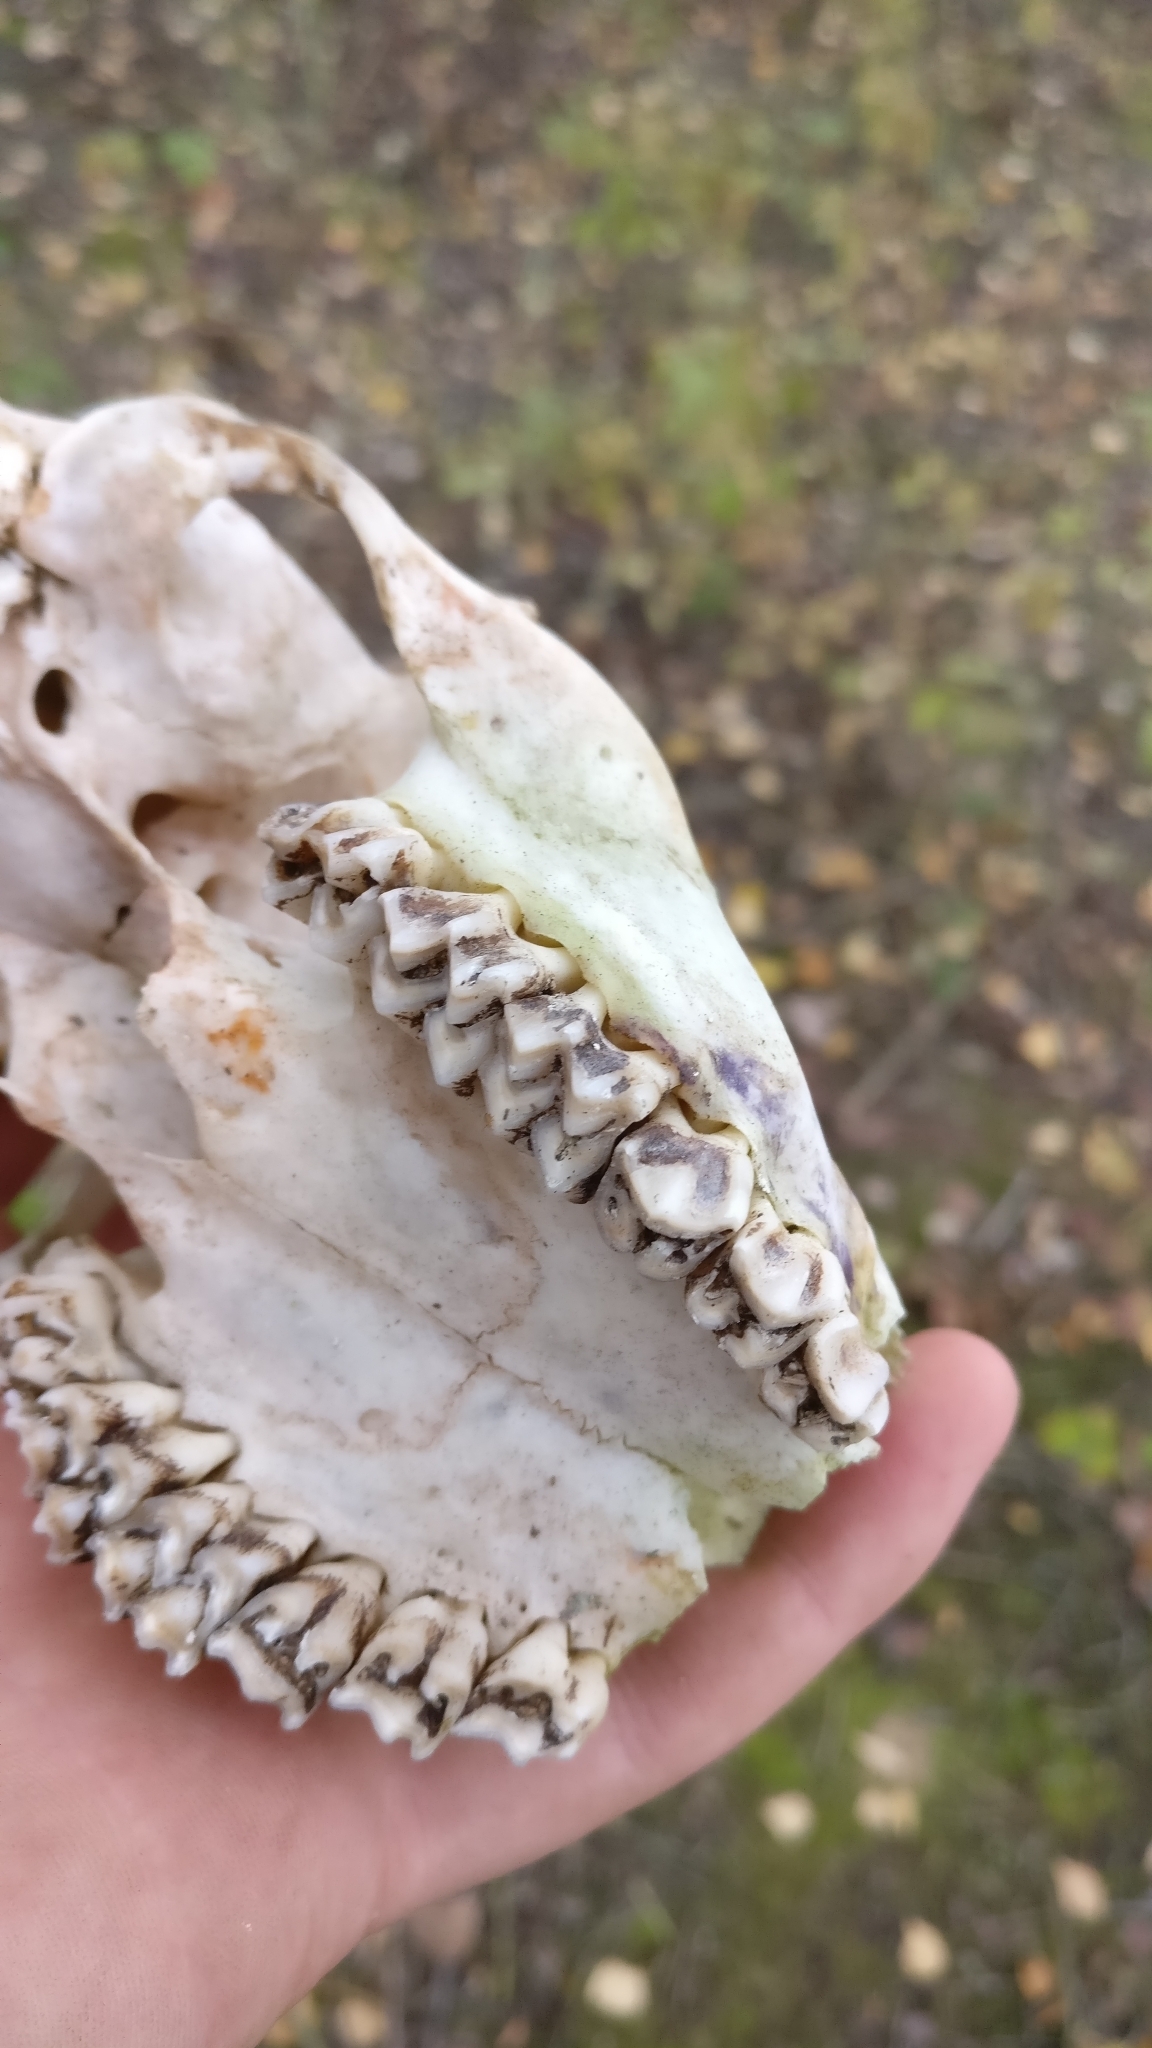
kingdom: Animalia
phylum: Chordata
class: Mammalia
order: Artiodactyla
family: Cervidae
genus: Capreolus
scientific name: Capreolus capreolus
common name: Western roe deer
